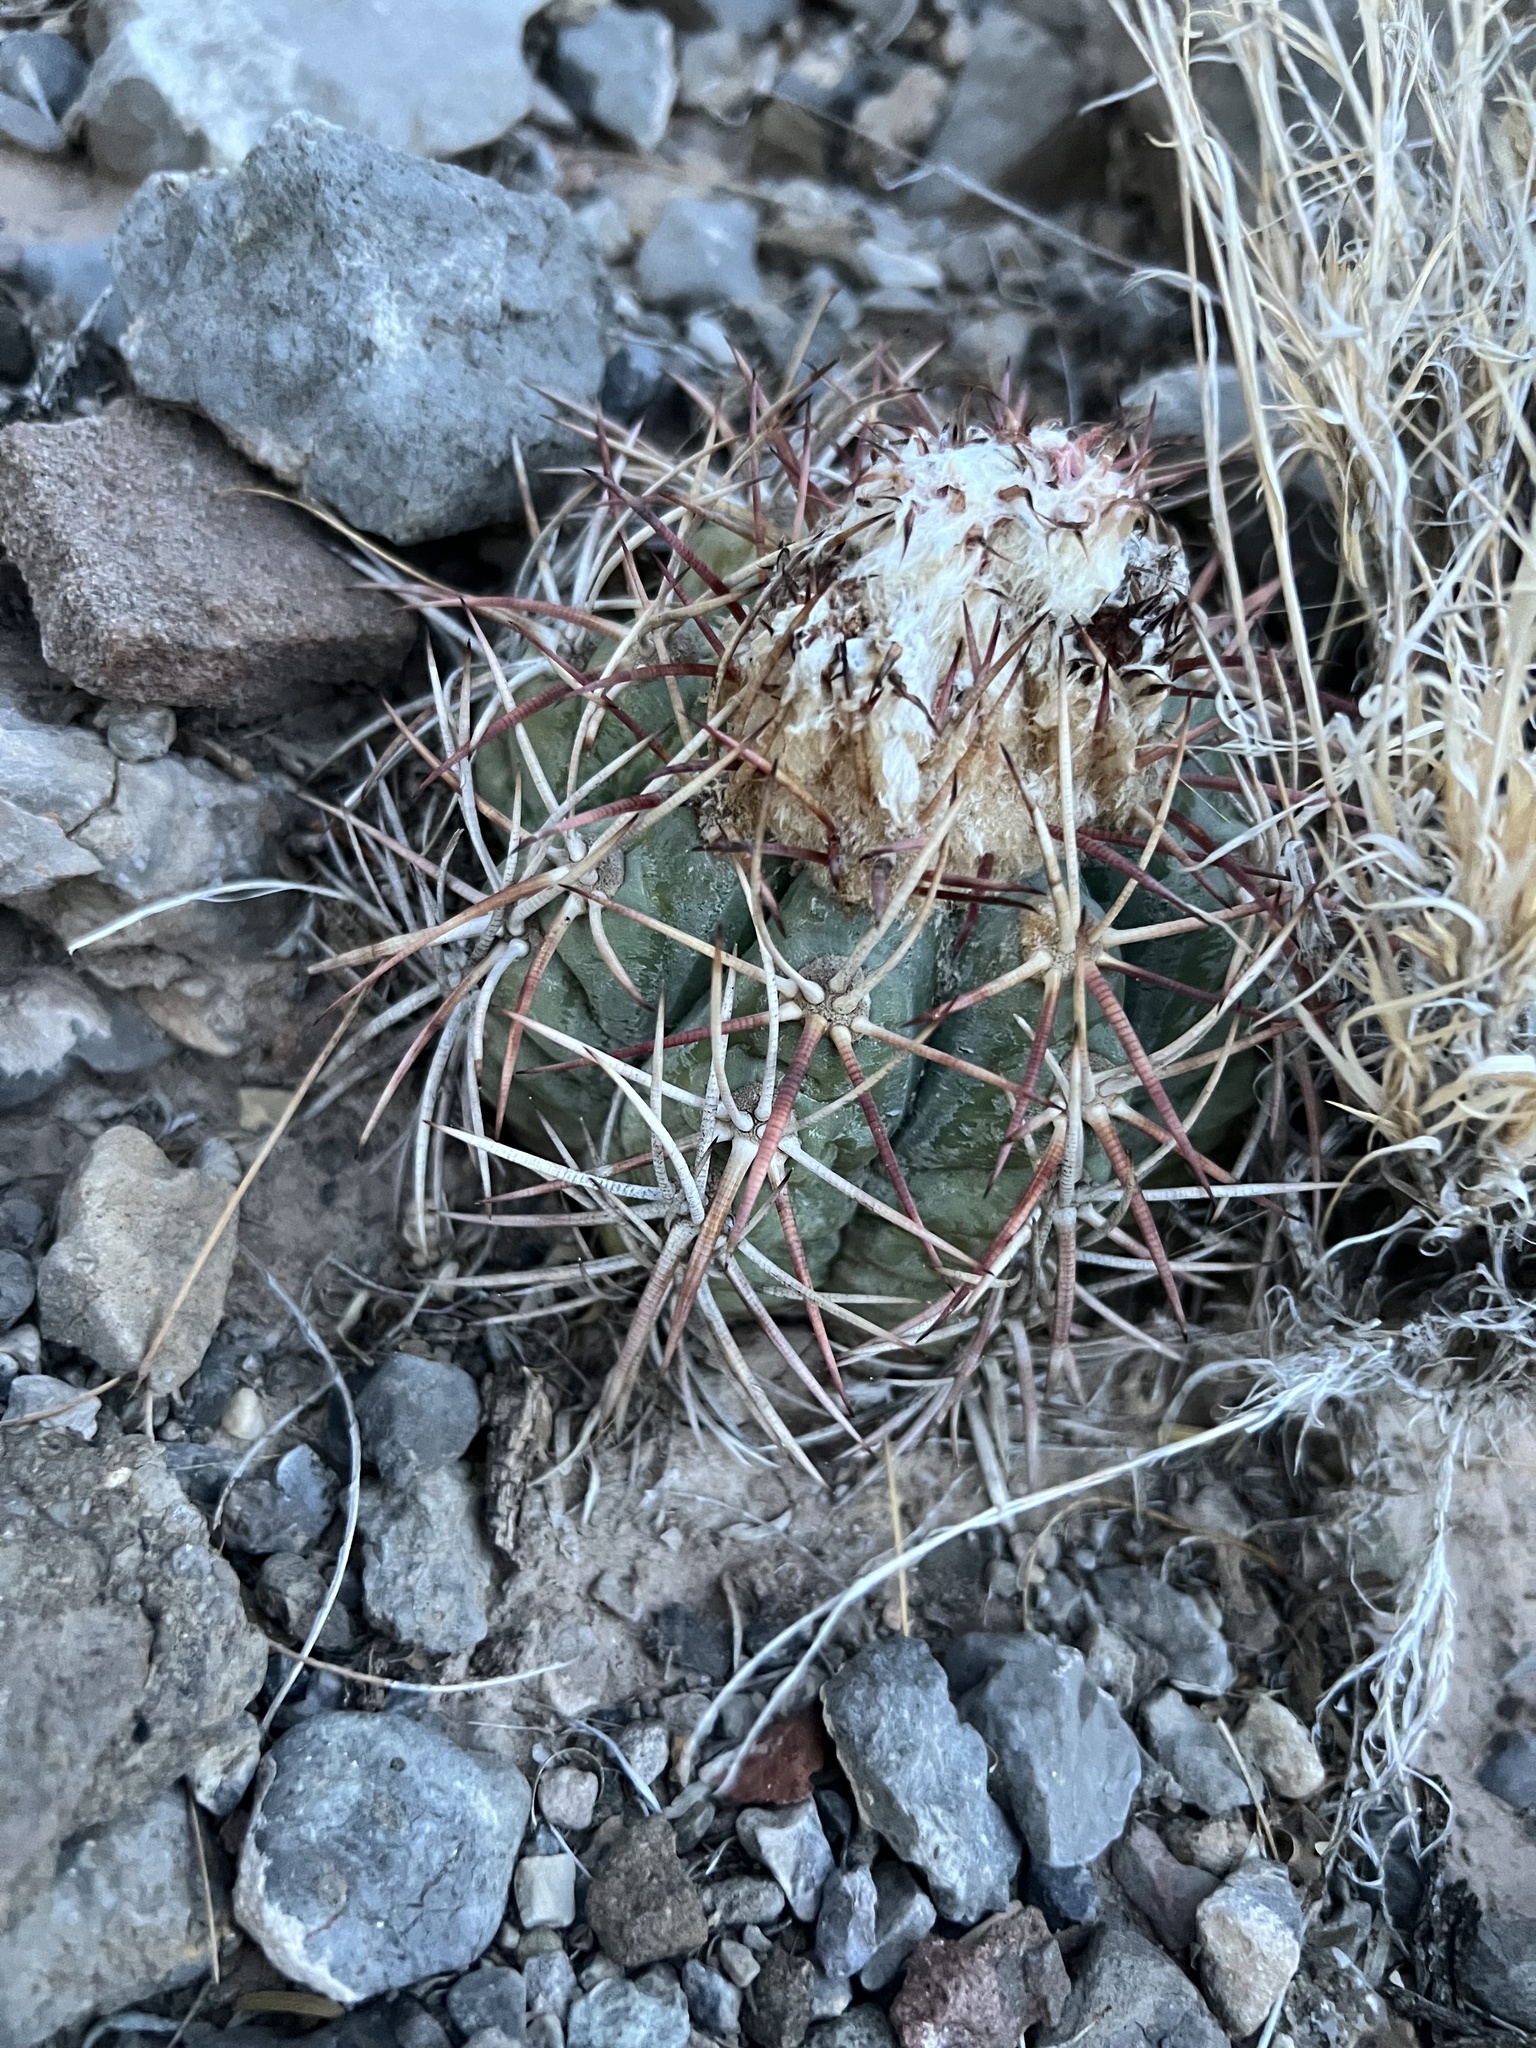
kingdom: Plantae
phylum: Tracheophyta
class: Magnoliopsida
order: Caryophyllales
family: Cactaceae
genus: Echinocactus
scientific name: Echinocactus horizonthalonius
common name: Devilshead
